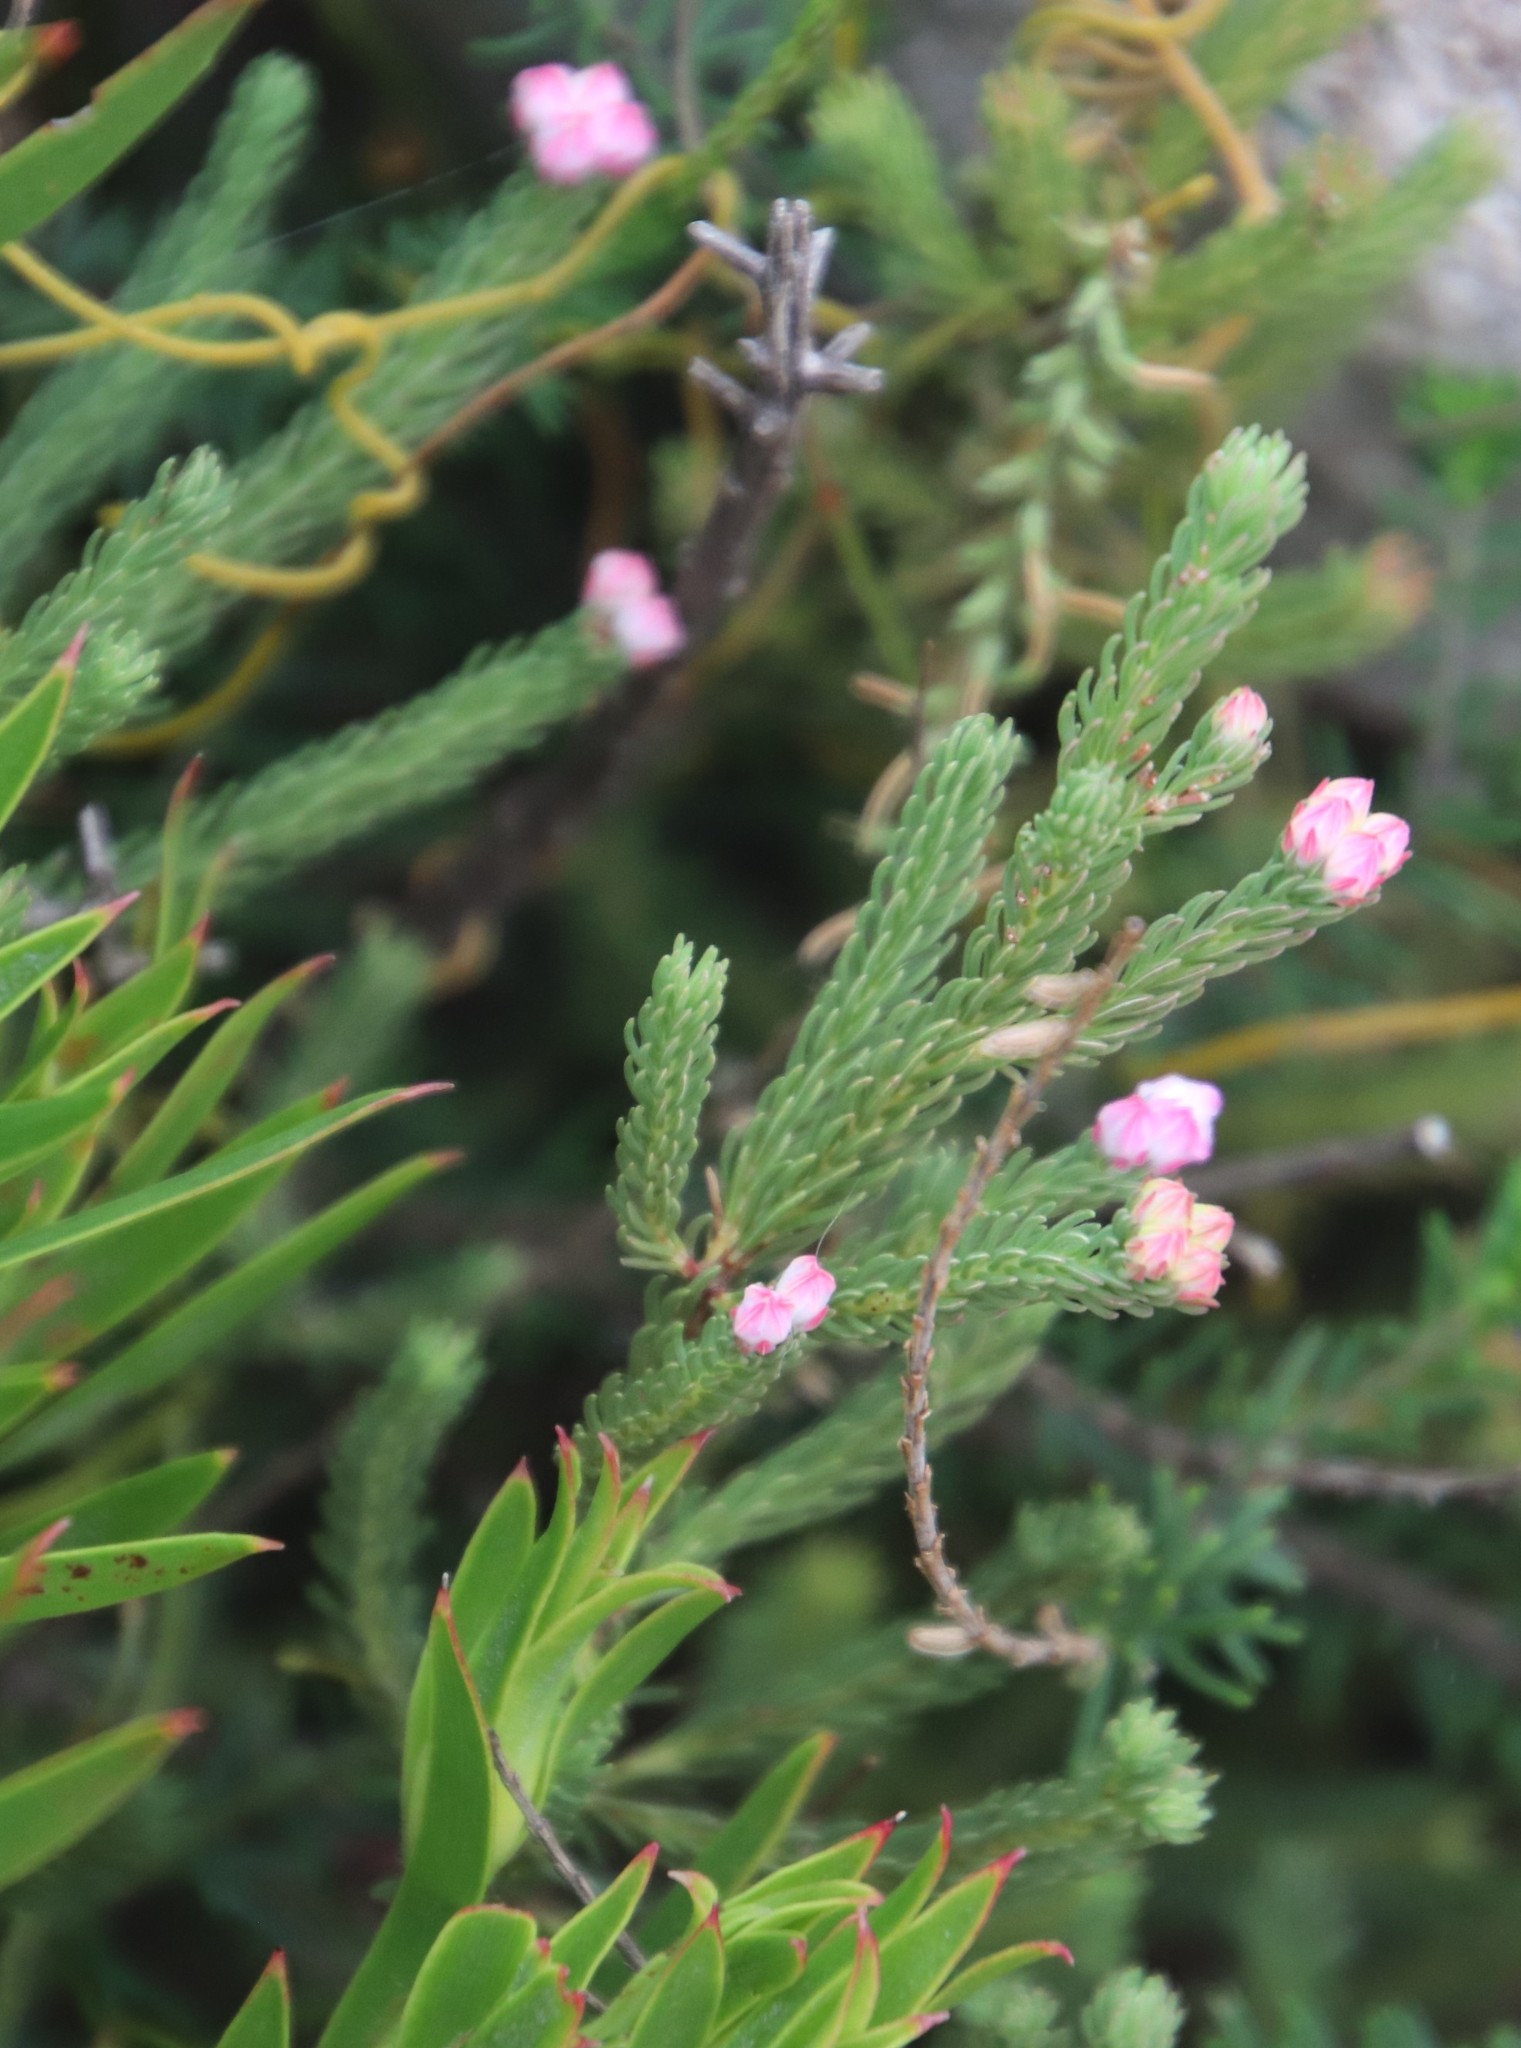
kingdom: Plantae
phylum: Tracheophyta
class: Magnoliopsida
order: Ericales
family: Ericaceae
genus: Erica
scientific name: Erica baccans
